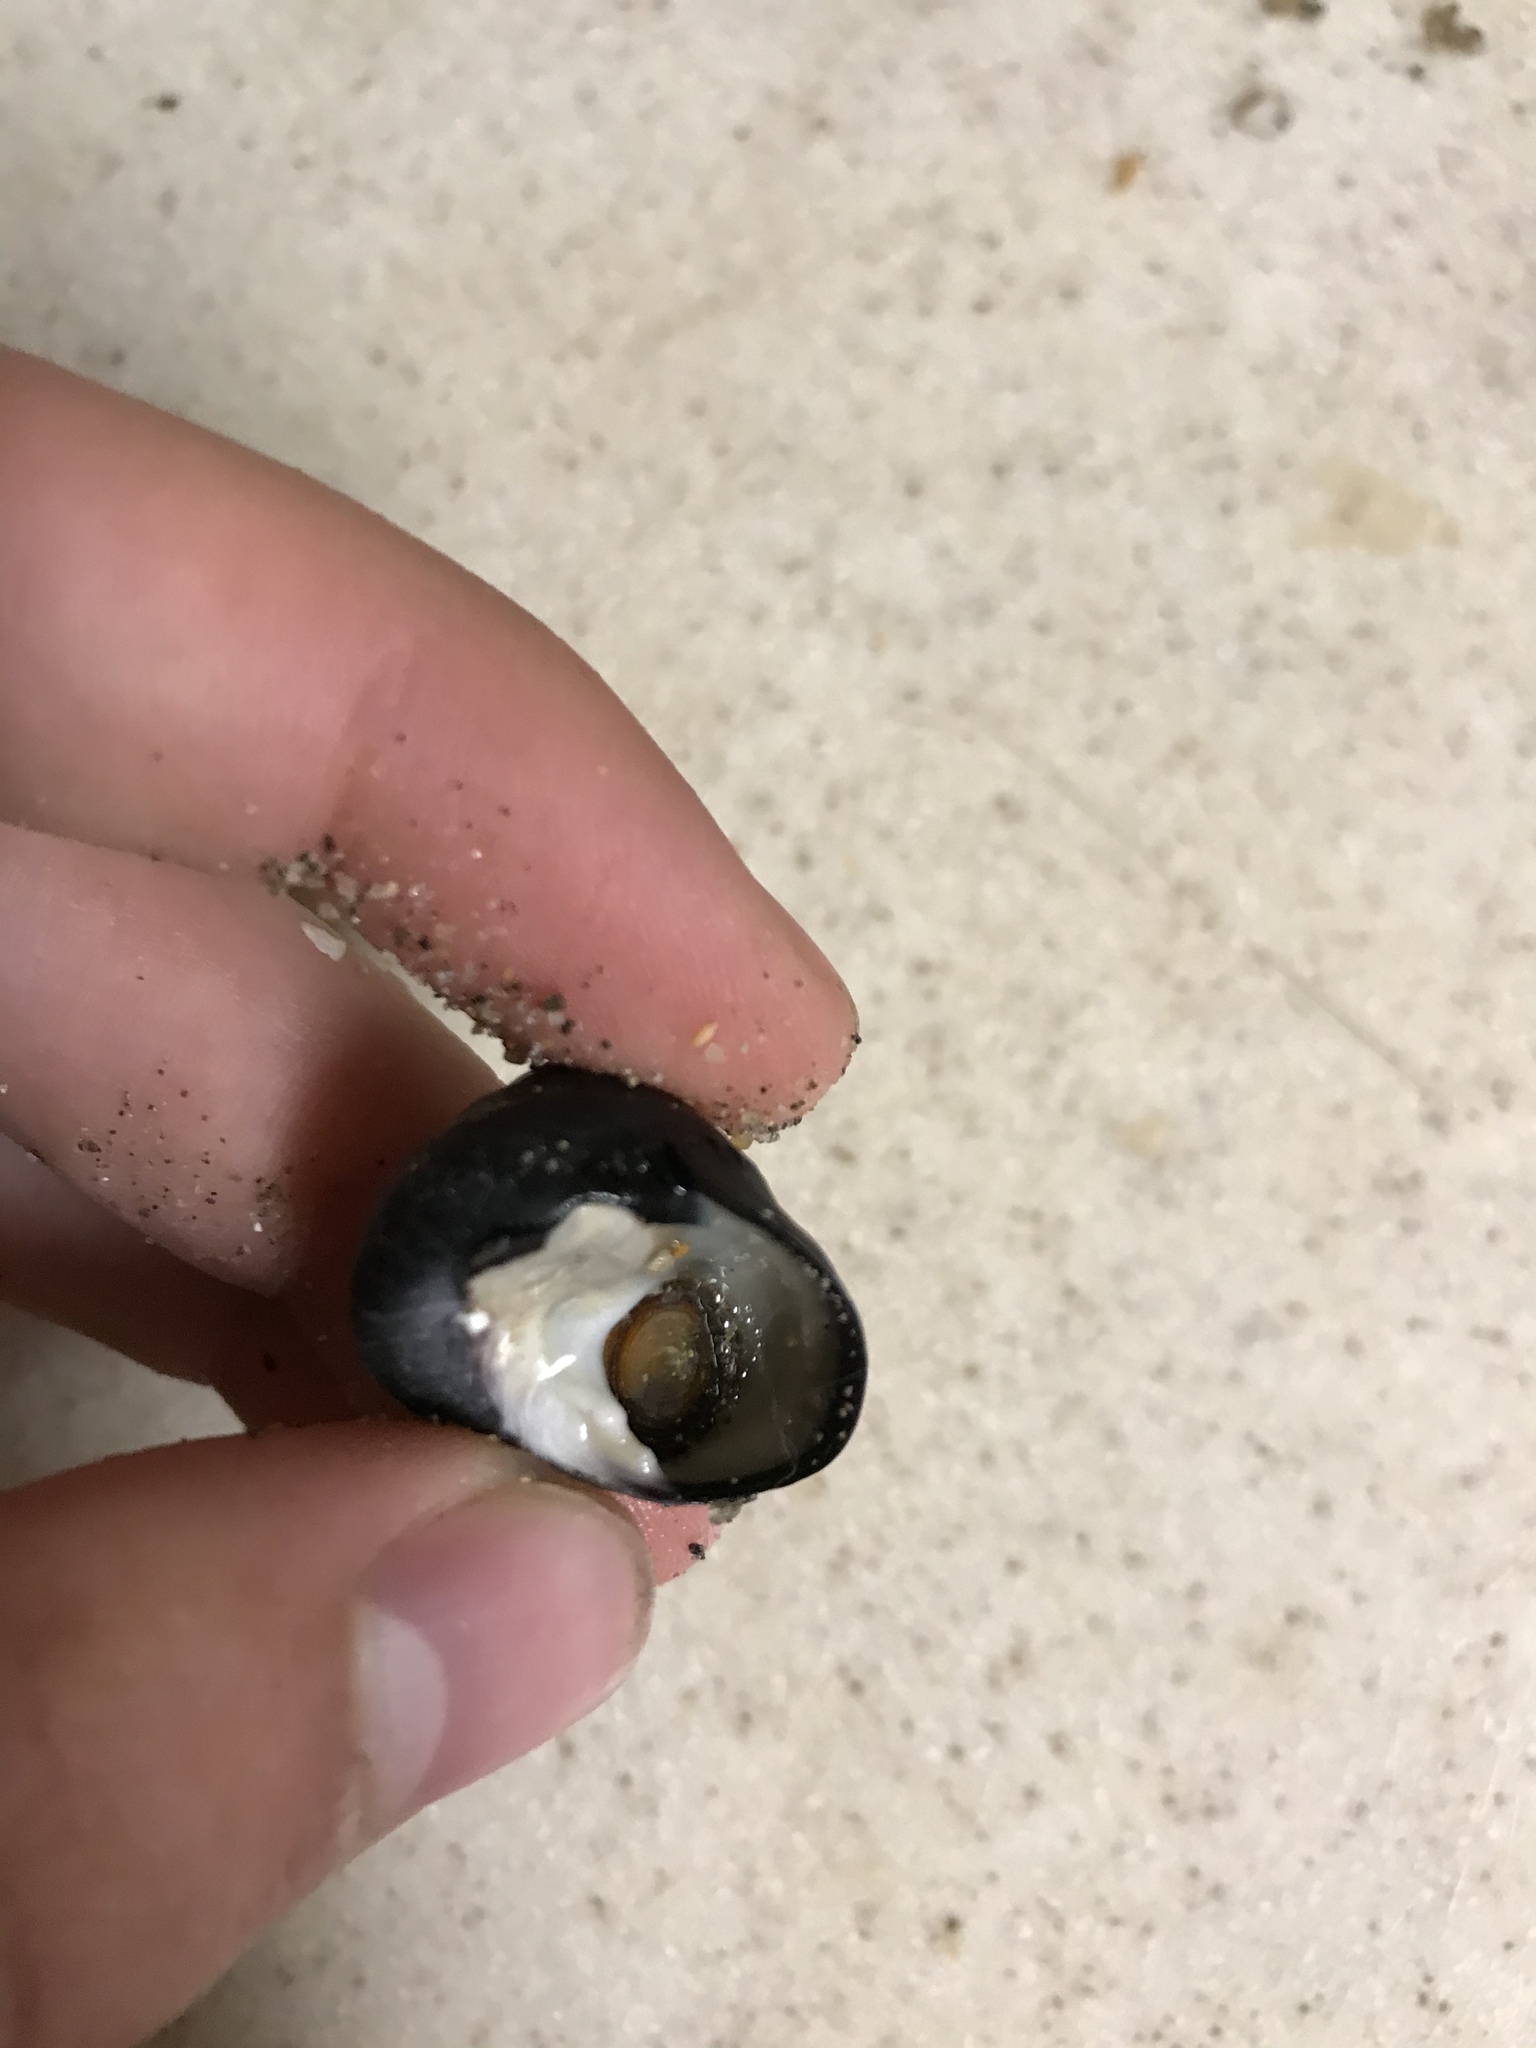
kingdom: Animalia
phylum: Mollusca
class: Gastropoda
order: Trochida
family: Tegulidae
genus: Tegula
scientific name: Tegula funebralis
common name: Black tegula
